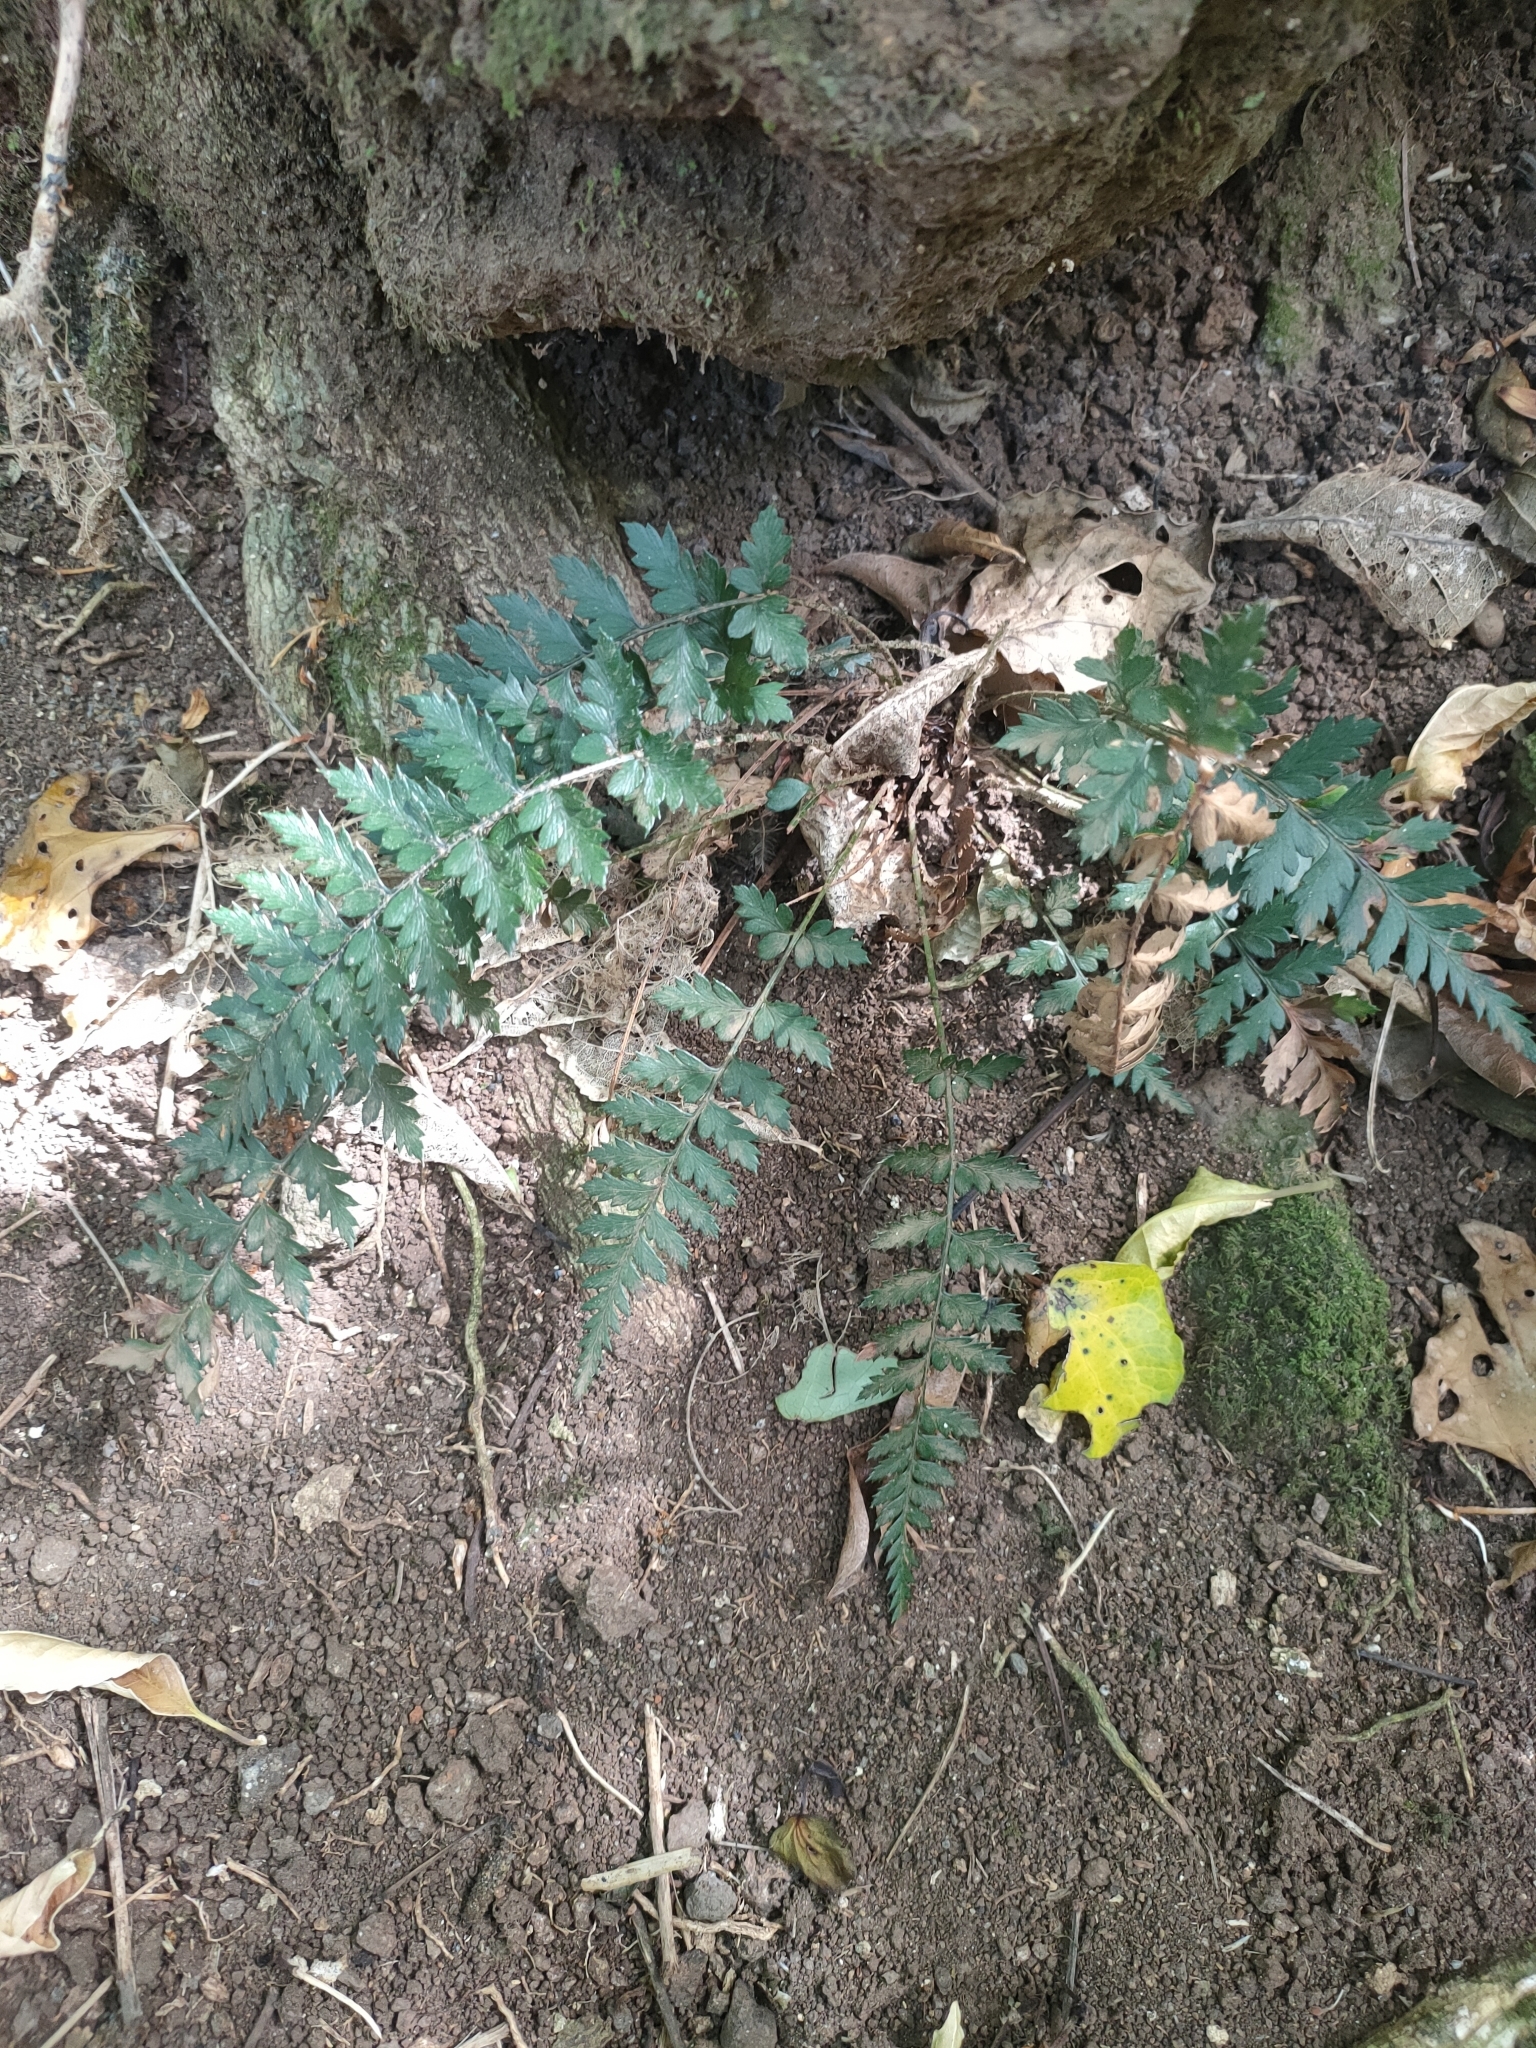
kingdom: Plantae
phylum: Tracheophyta
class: Polypodiopsida
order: Polypodiales
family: Dryopteridaceae
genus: Polystichum
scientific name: Polystichum oculatum
